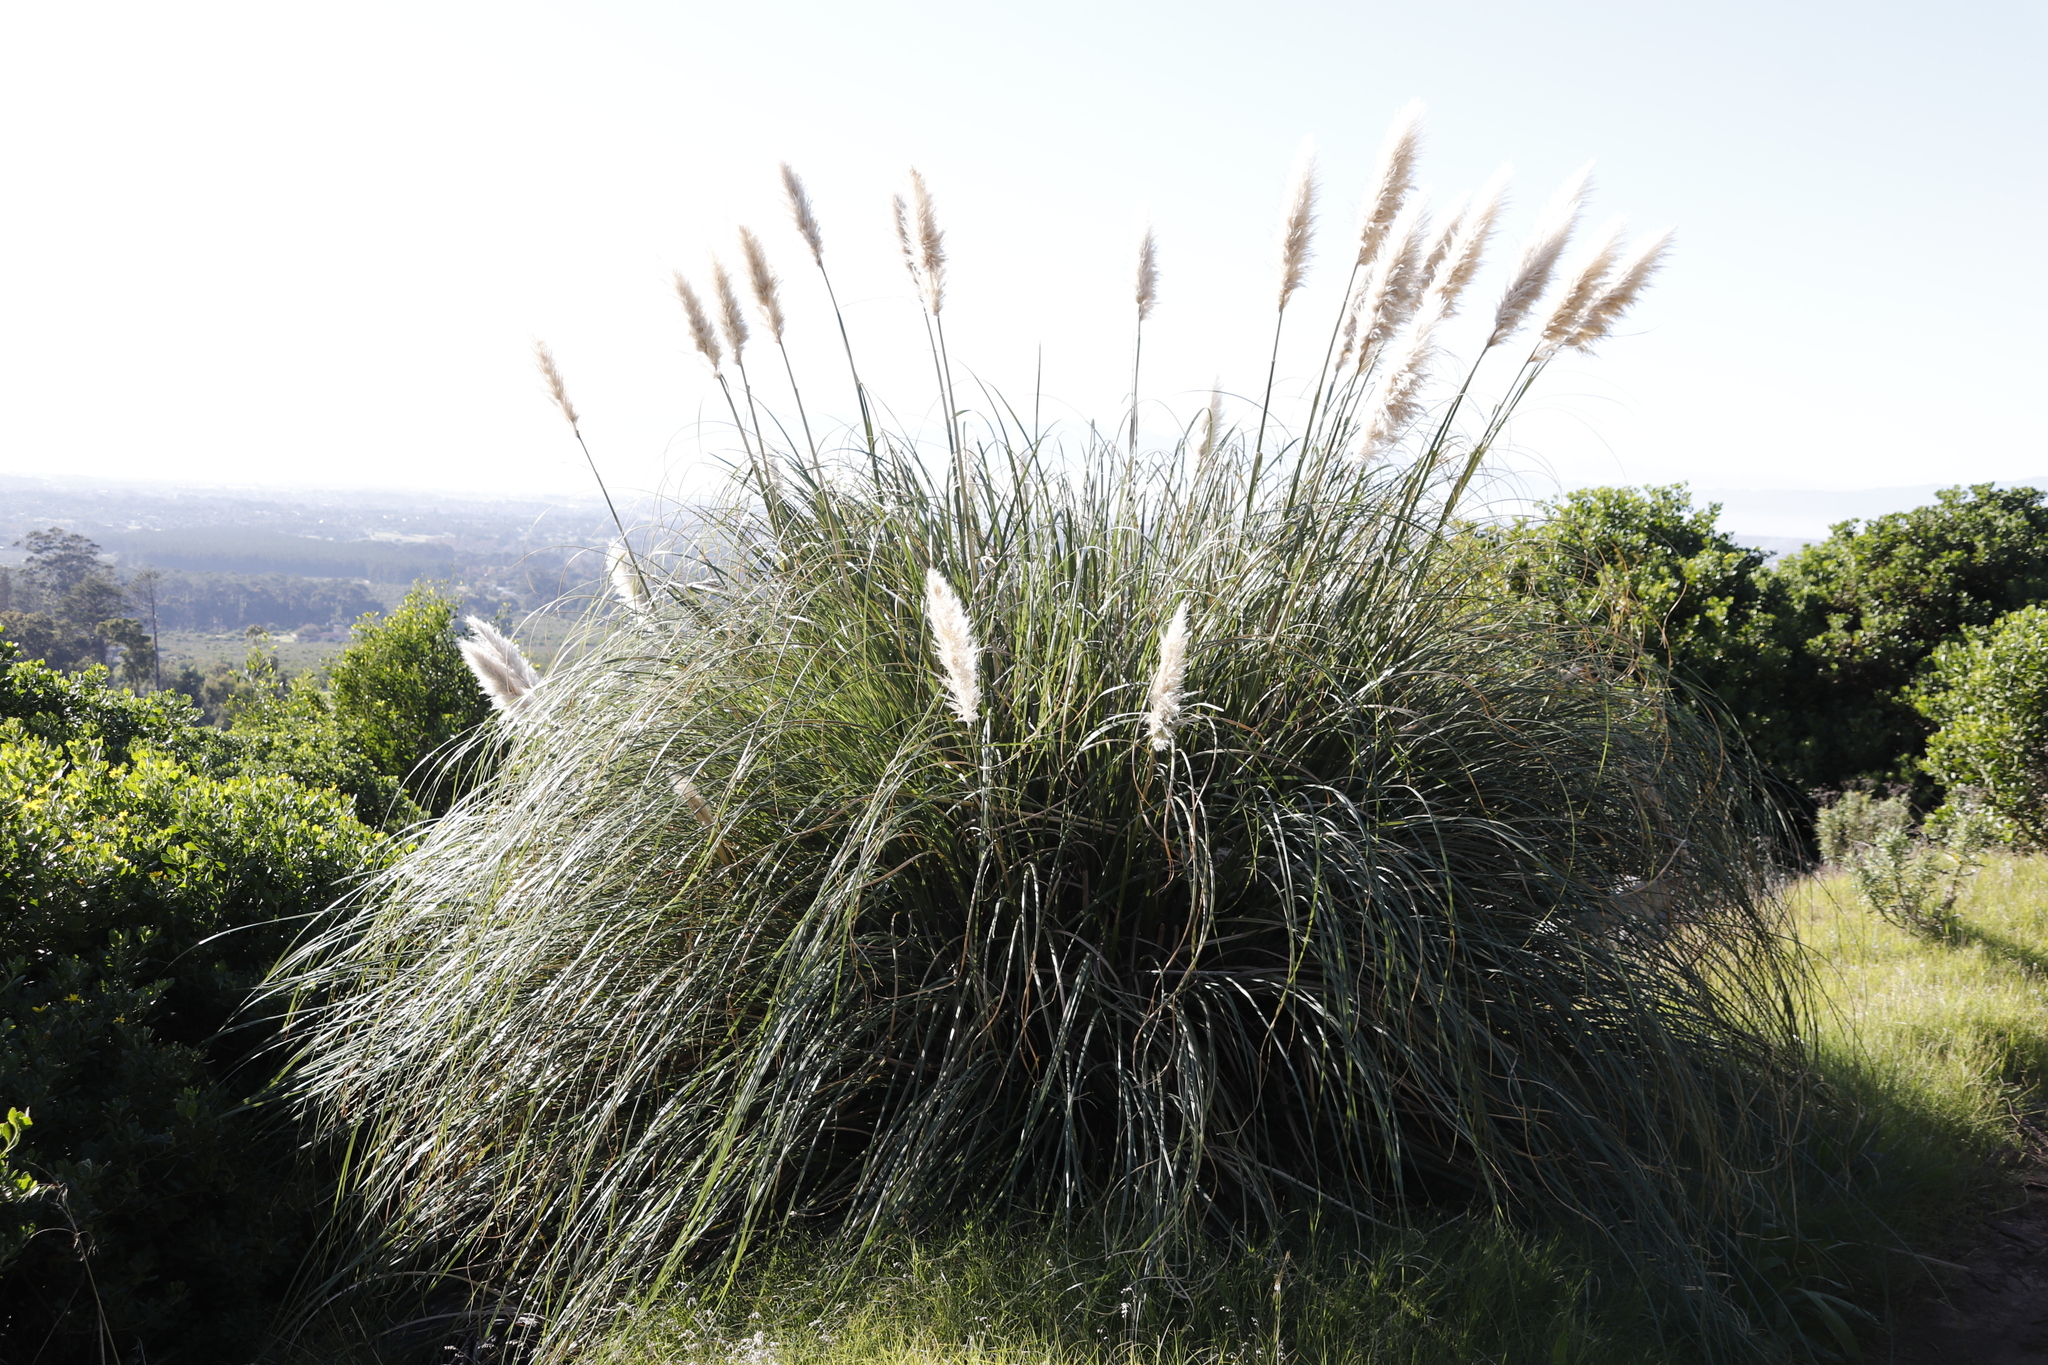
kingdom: Plantae
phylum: Tracheophyta
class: Liliopsida
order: Poales
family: Poaceae
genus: Cortaderia
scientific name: Cortaderia selloana
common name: Uruguayan pampas grass
